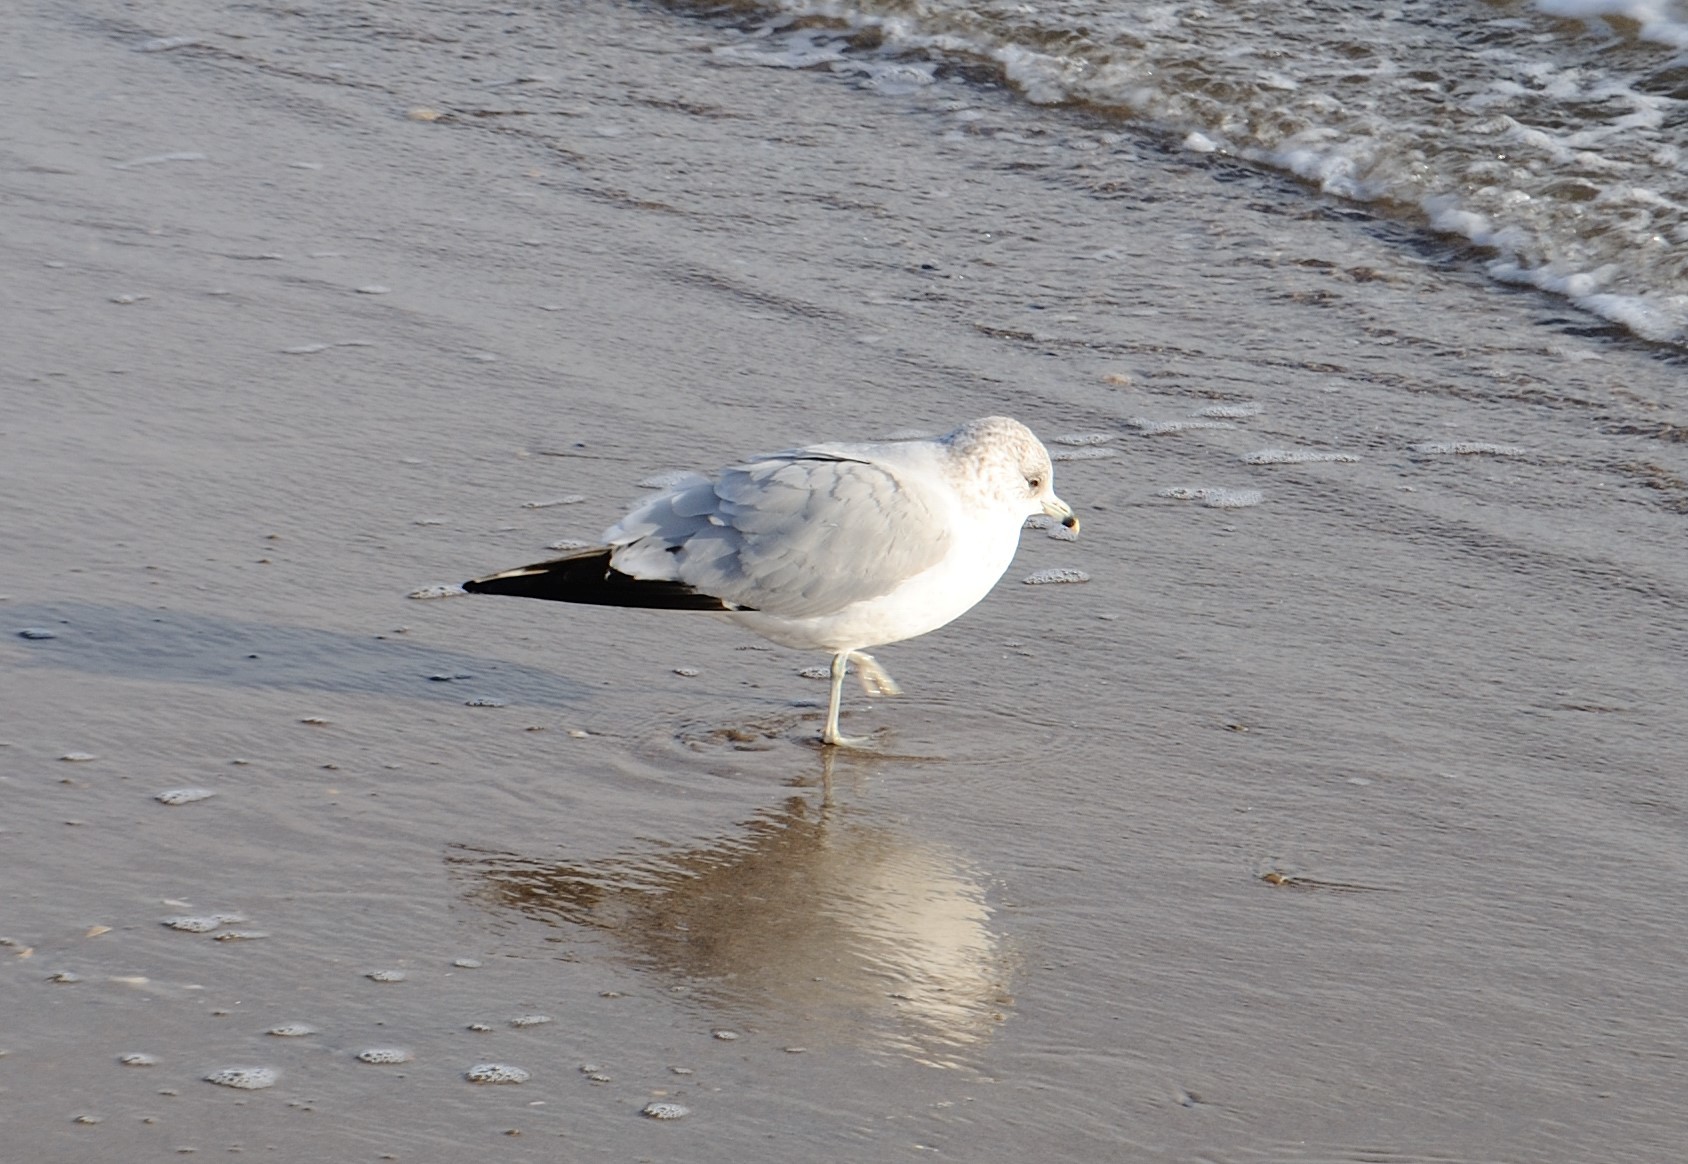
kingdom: Animalia
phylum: Chordata
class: Aves
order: Charadriiformes
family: Laridae
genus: Larus
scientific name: Larus delawarensis
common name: Ring-billed gull
